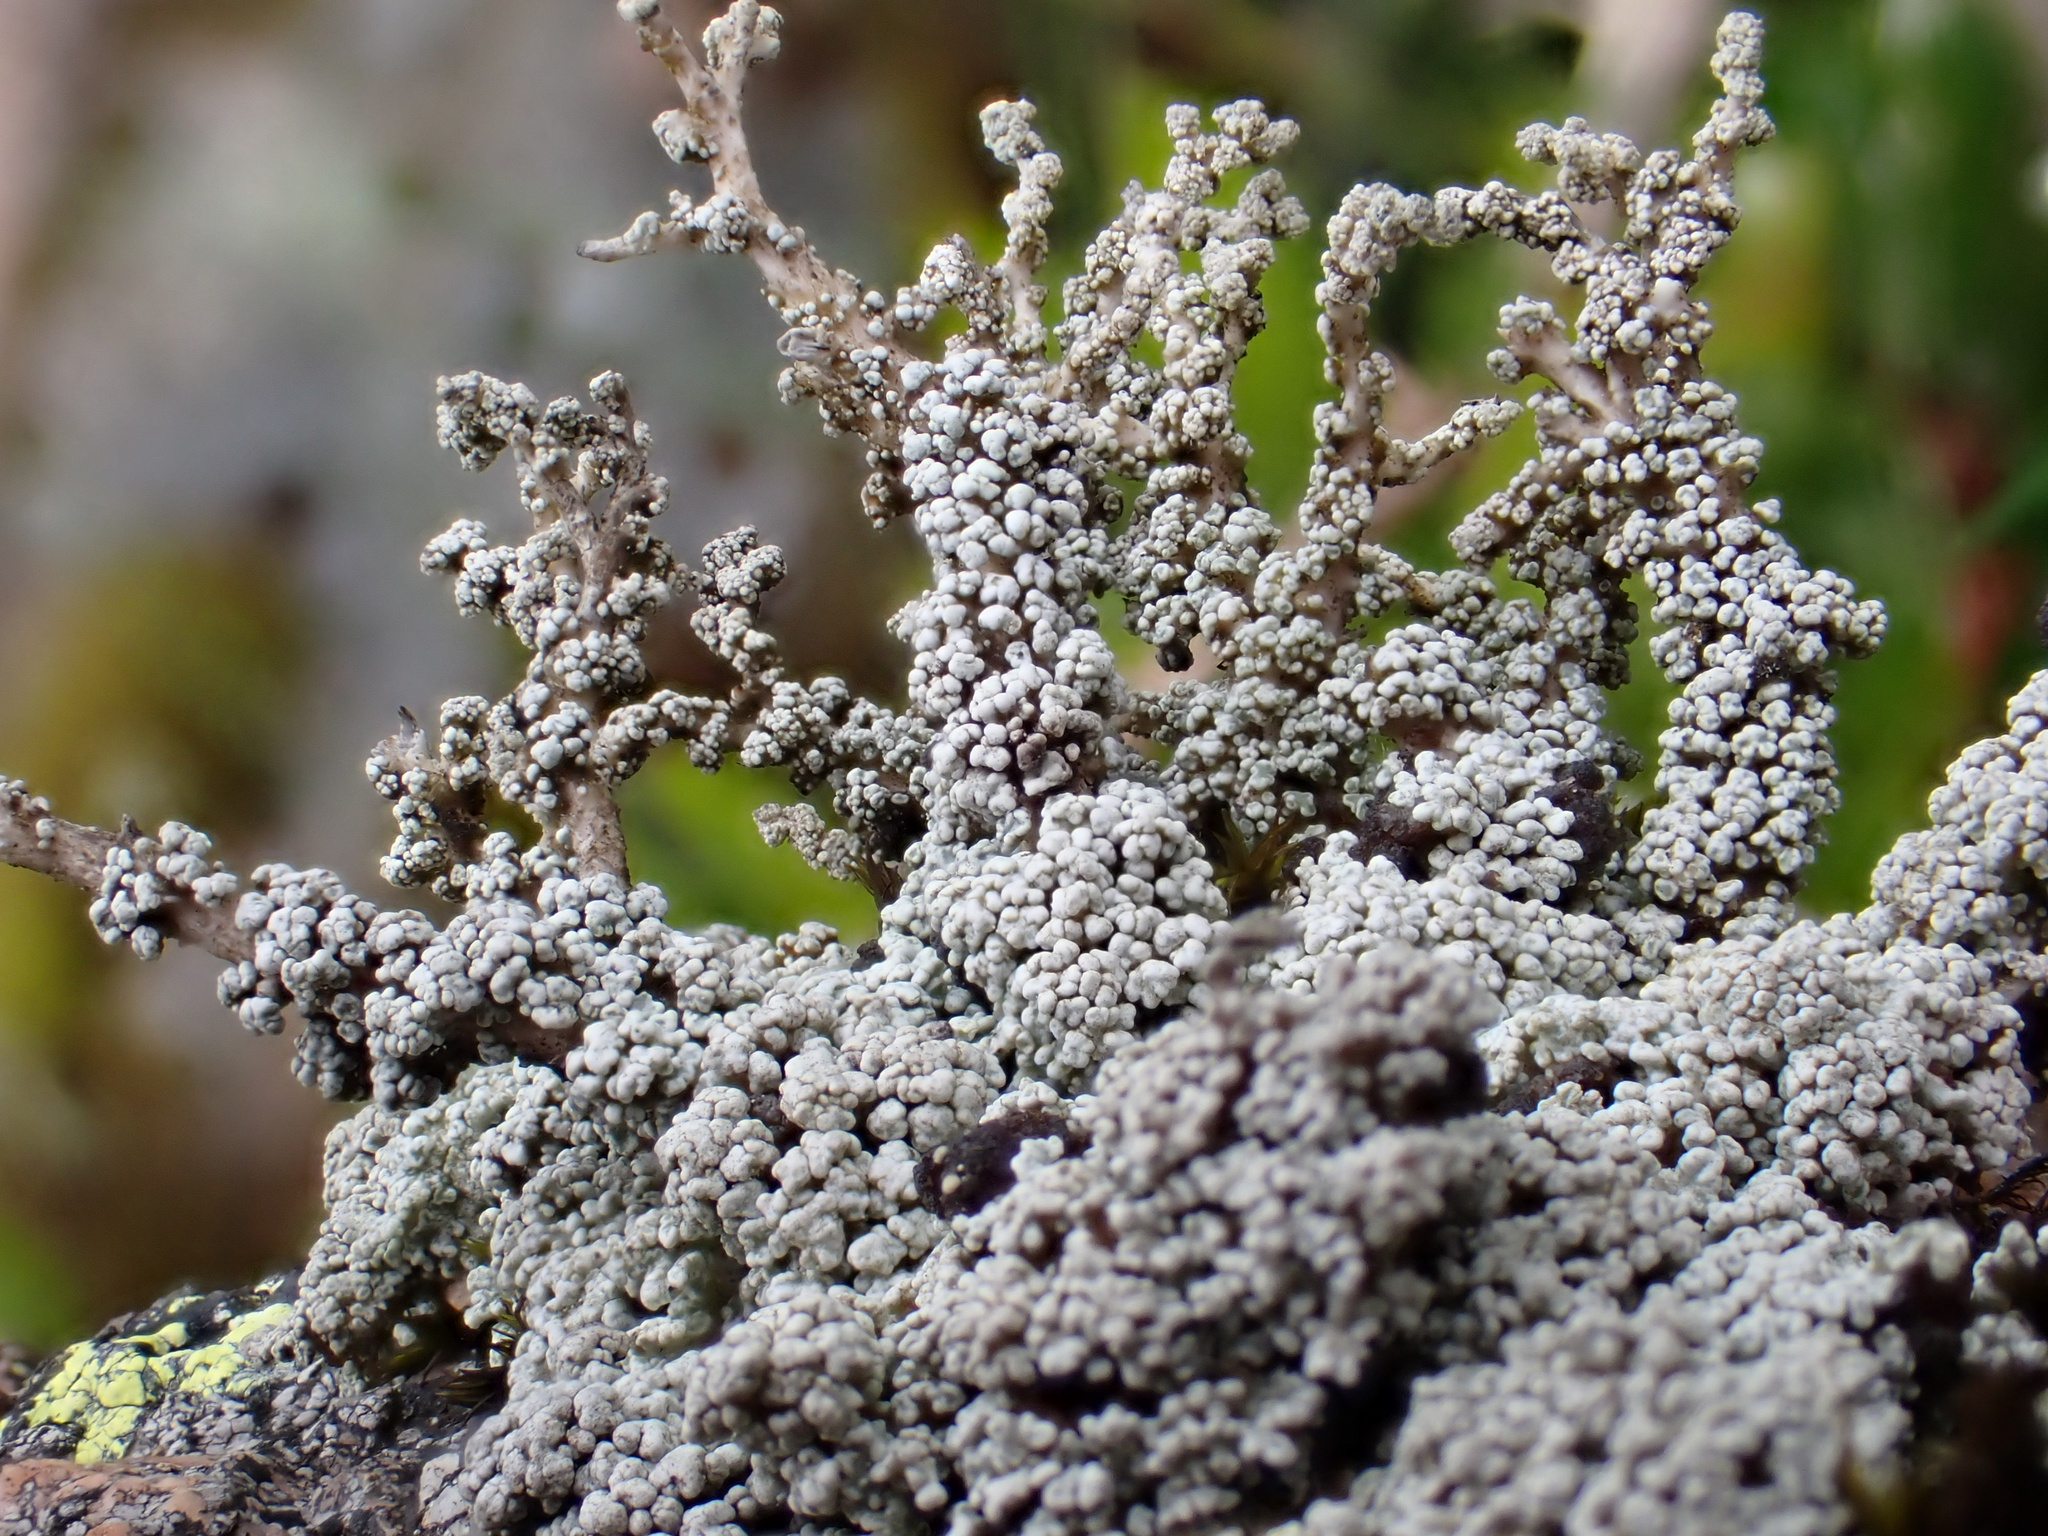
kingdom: Fungi
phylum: Ascomycota
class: Lecanoromycetes
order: Lecanorales
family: Stereocaulaceae
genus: Stereocaulon
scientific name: Stereocaulon vesuvianum
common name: Variegated foam lichen
